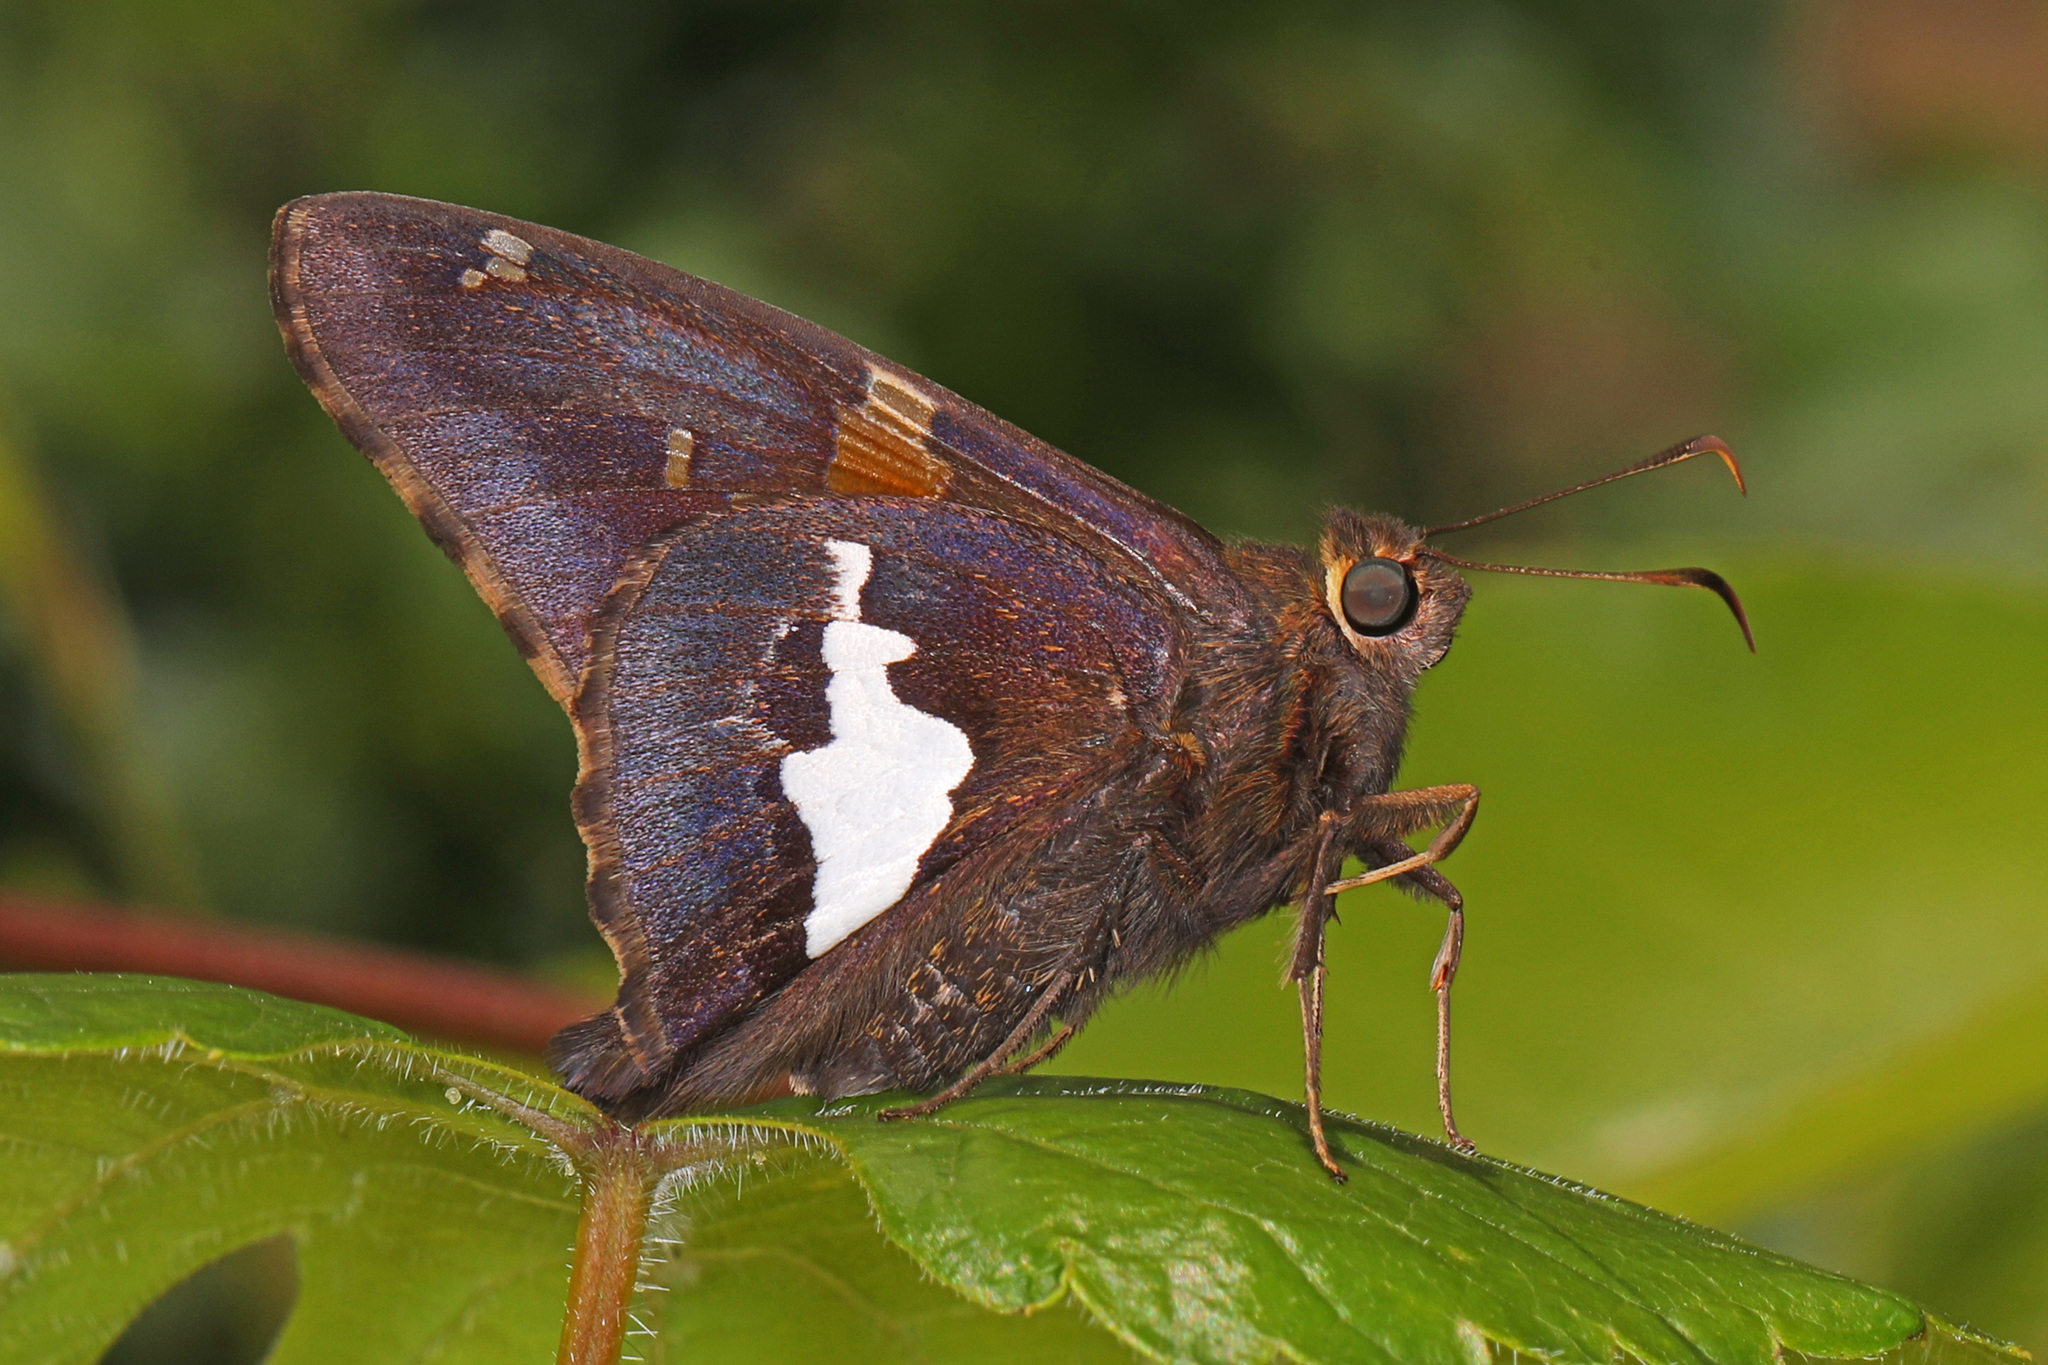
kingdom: Animalia
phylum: Arthropoda
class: Insecta
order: Lepidoptera
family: Hesperiidae
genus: Epargyreus
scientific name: Epargyreus clarus
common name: Silver-spotted skipper
